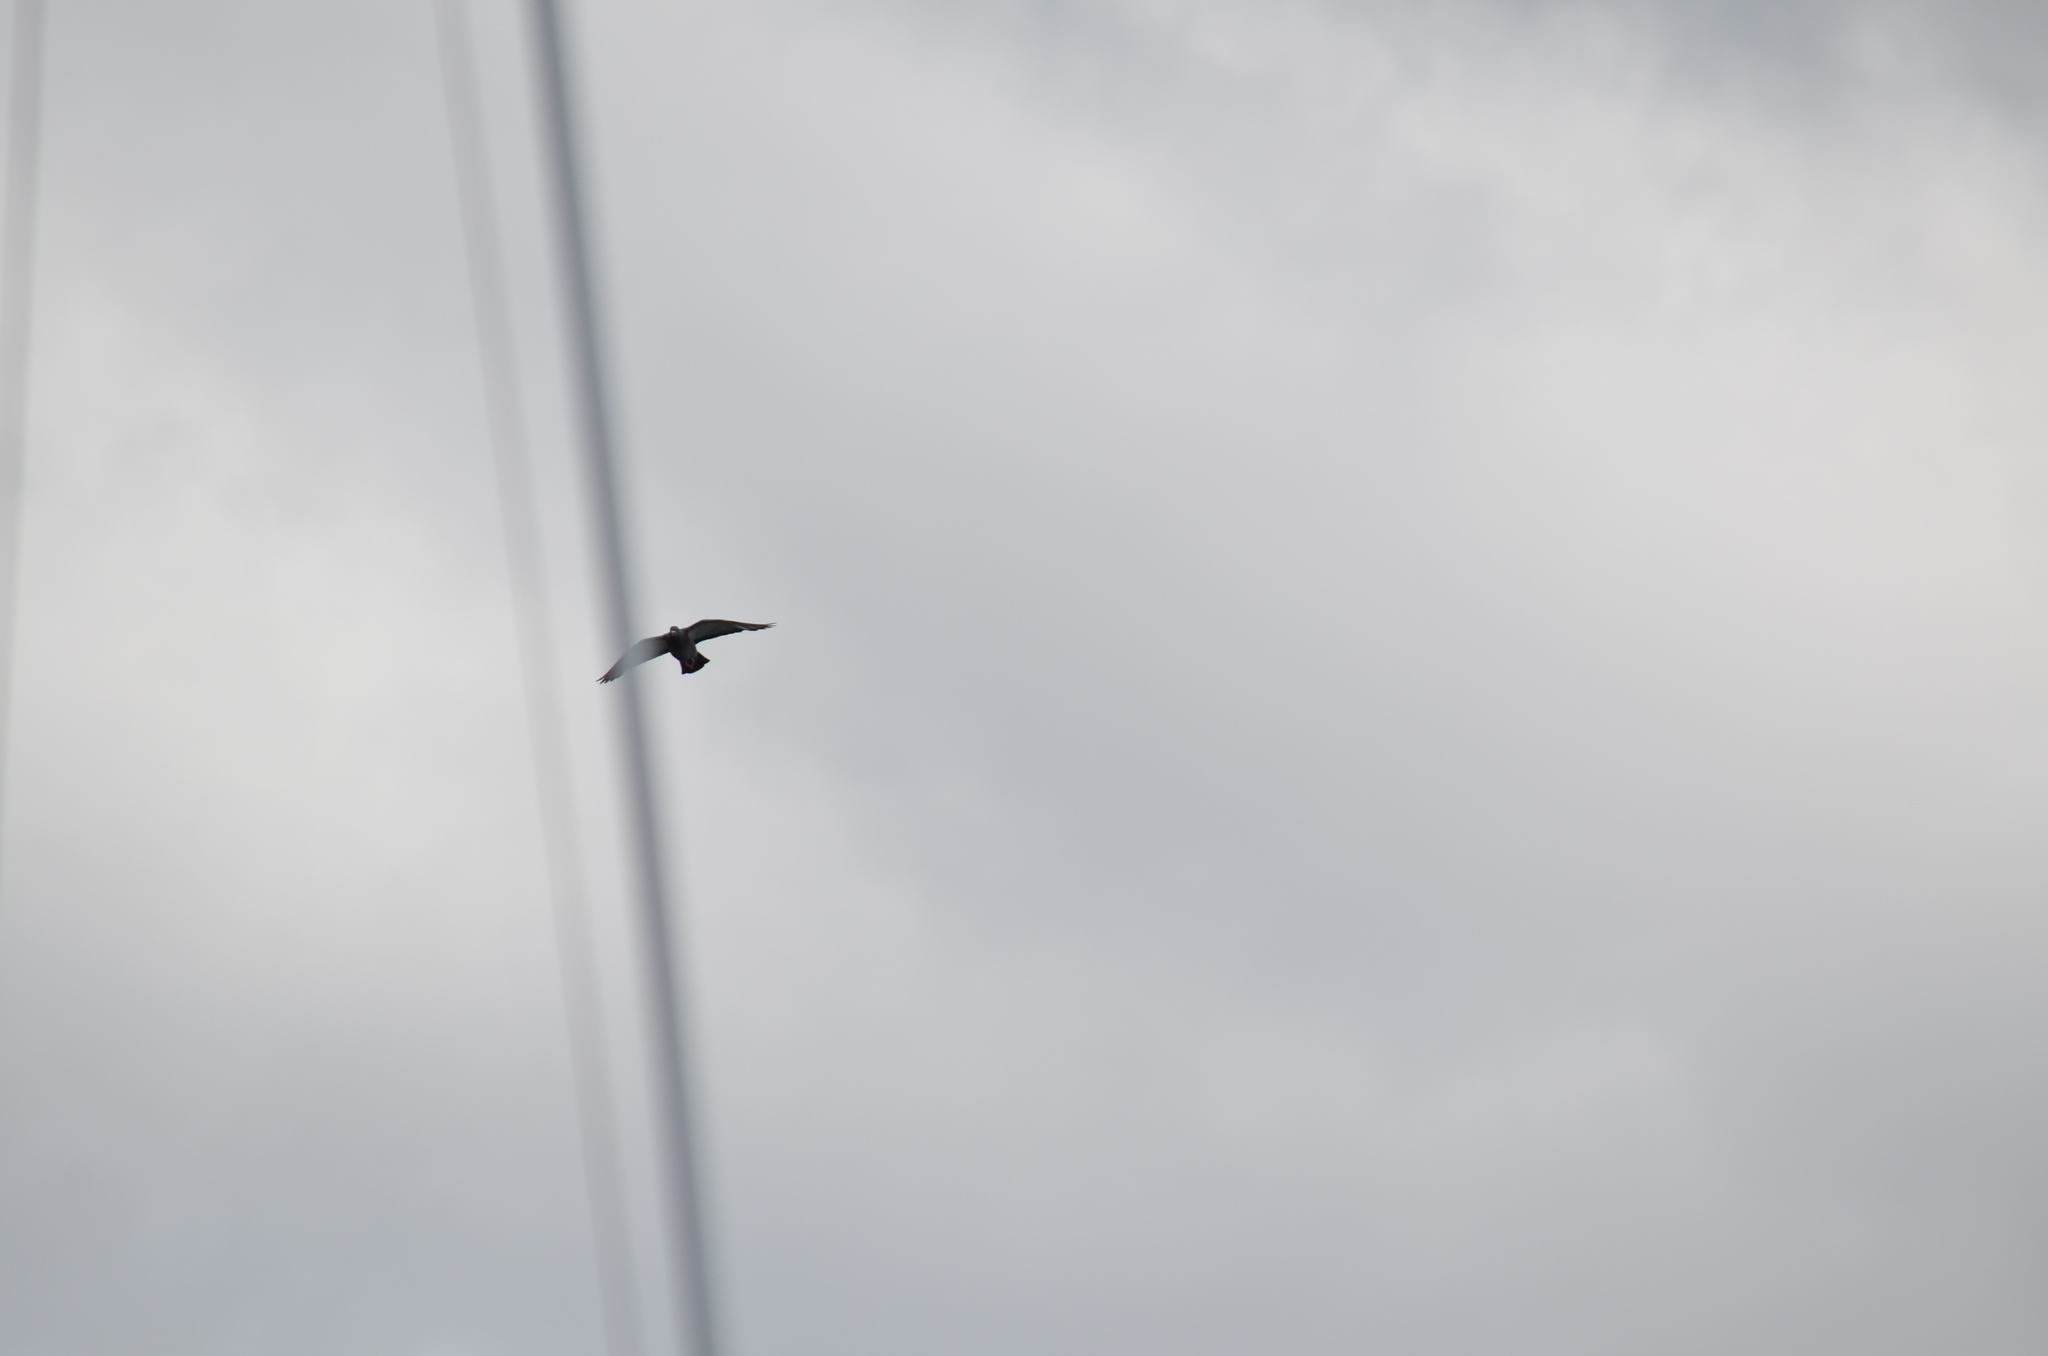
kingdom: Animalia
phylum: Chordata
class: Aves
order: Columbiformes
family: Columbidae
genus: Columba
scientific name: Columba livia
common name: Rock pigeon
